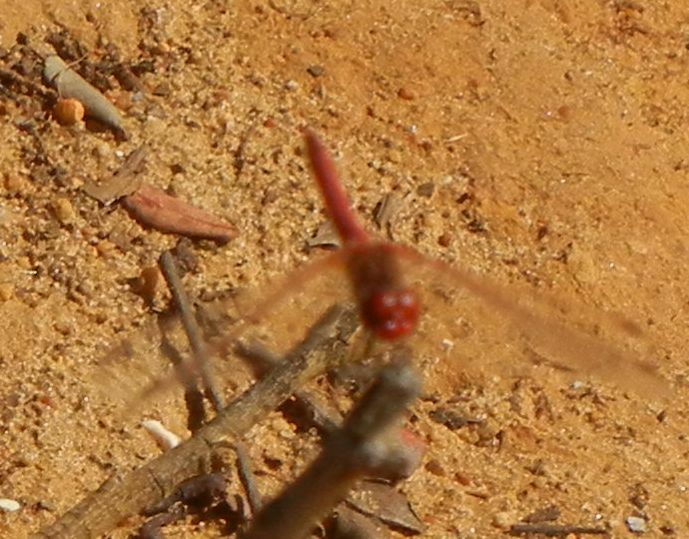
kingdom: Animalia
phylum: Arthropoda
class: Insecta
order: Odonata
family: Libellulidae
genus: Sympetrum
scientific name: Sympetrum fonscolombii
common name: Red-veined darter
